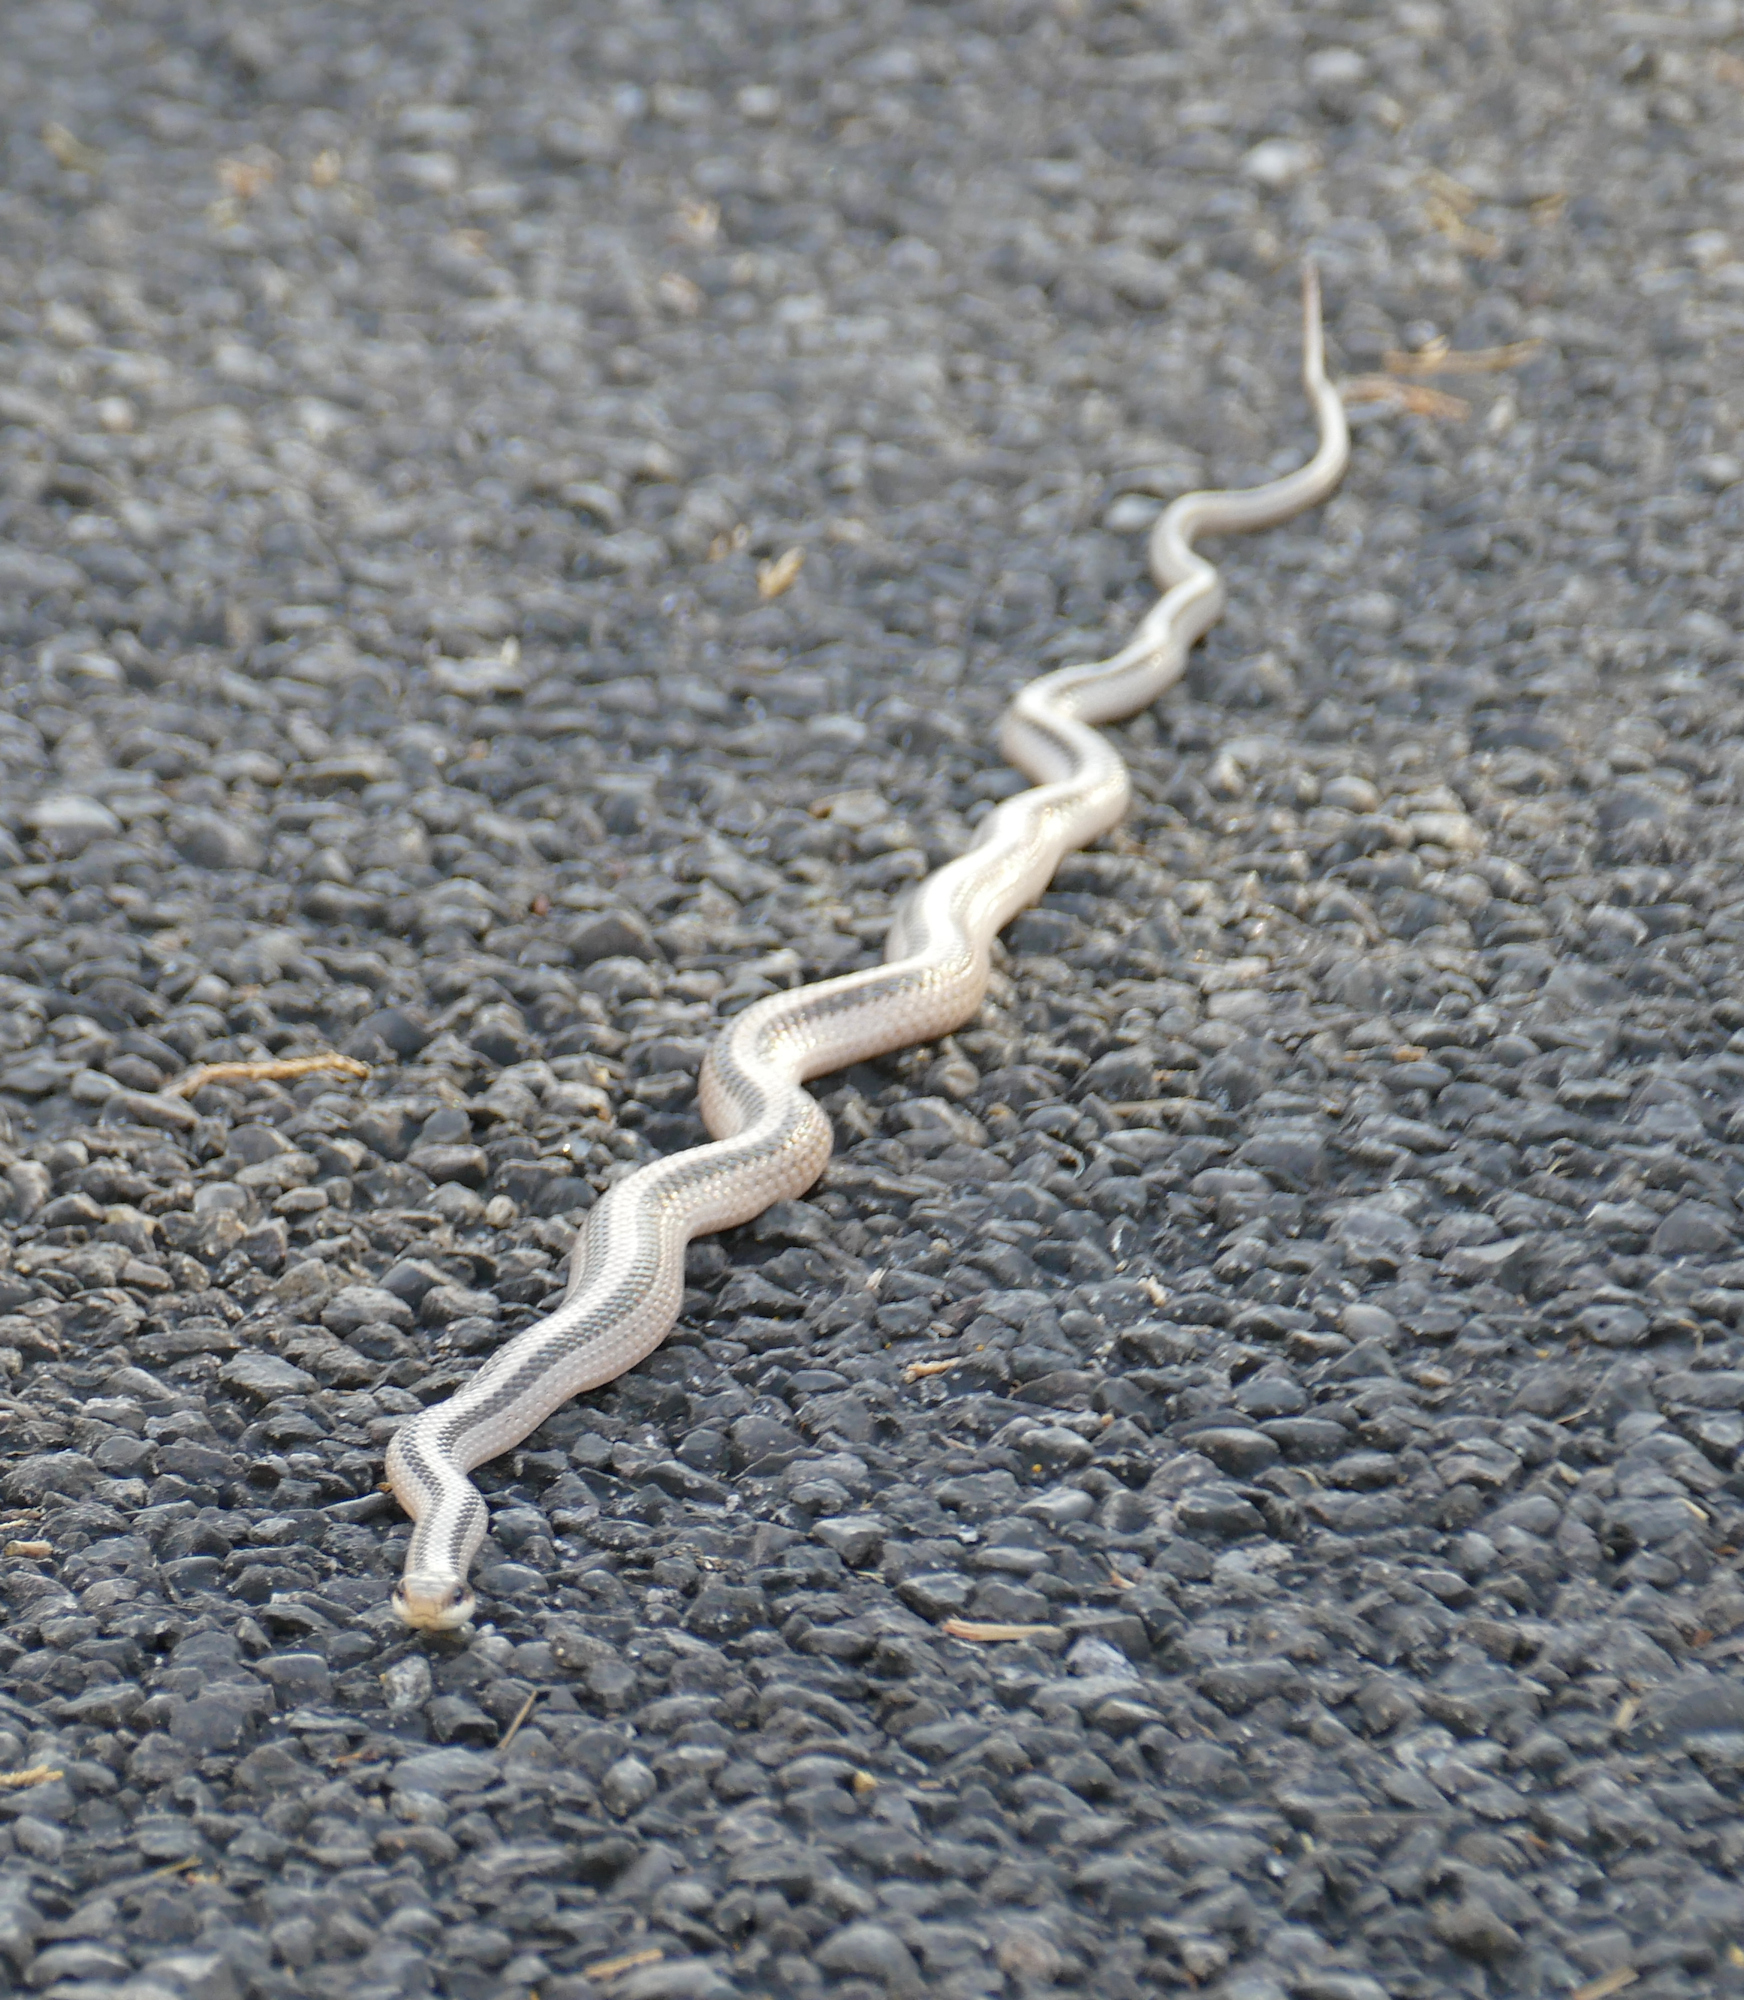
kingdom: Animalia
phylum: Chordata
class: Squamata
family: Colubridae
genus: Salvadora
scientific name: Salvadora grahamiae
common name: Mountain patchnose snake
